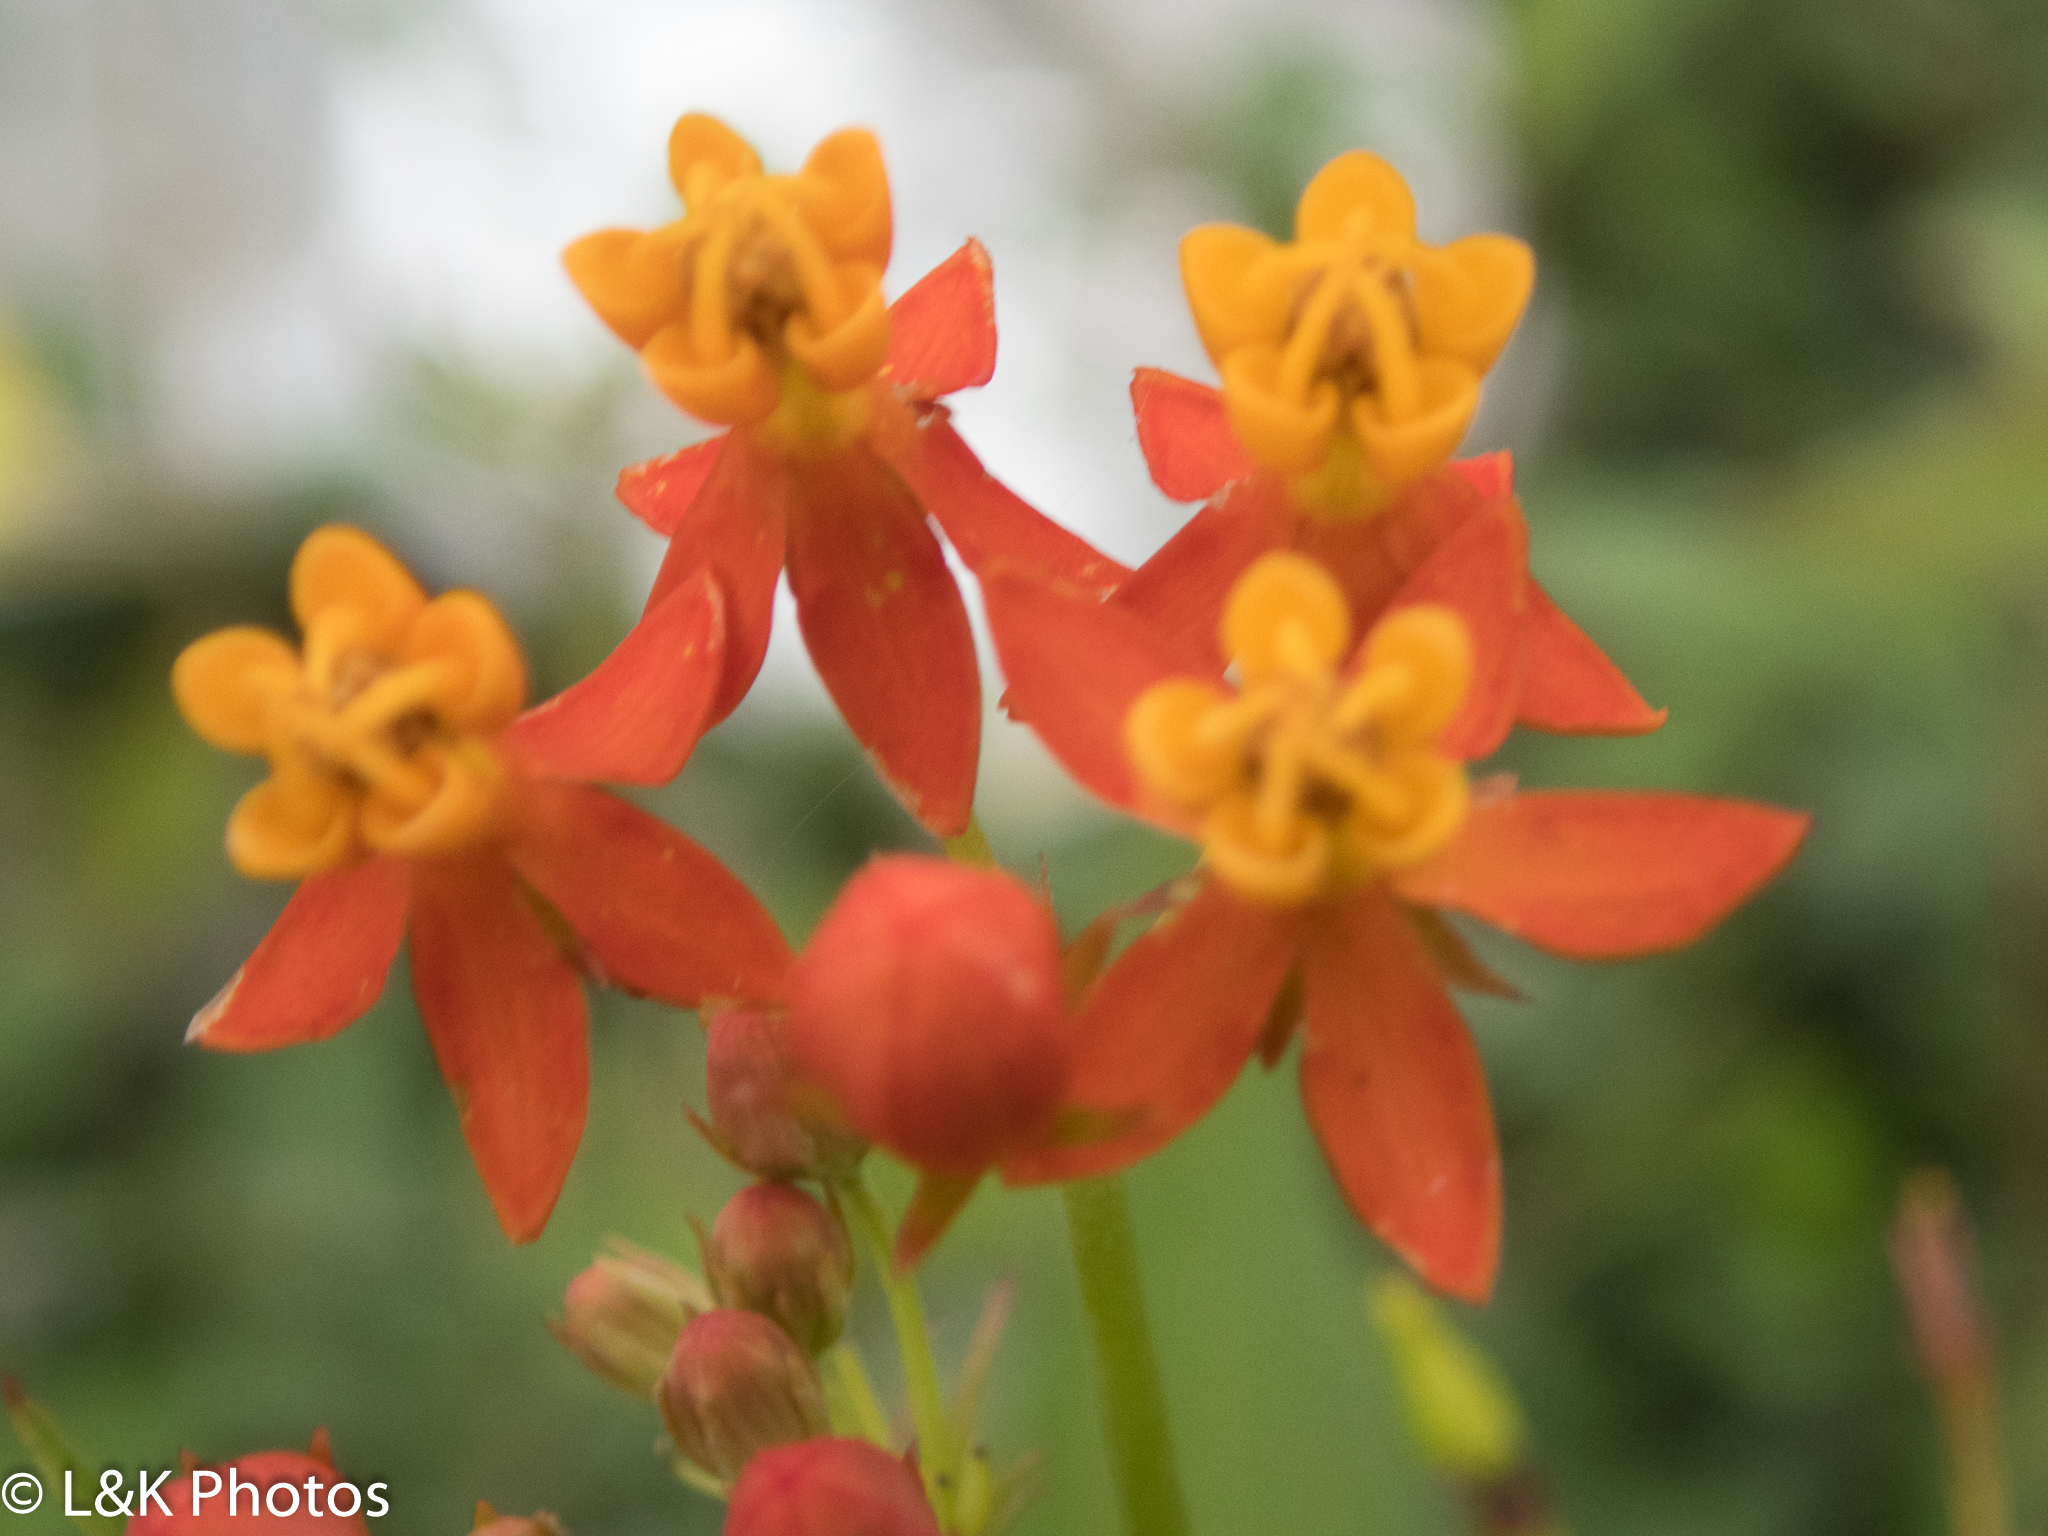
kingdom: Plantae
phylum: Tracheophyta
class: Magnoliopsida
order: Gentianales
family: Apocynaceae
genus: Asclepias
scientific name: Asclepias curassavica
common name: Bloodflower
